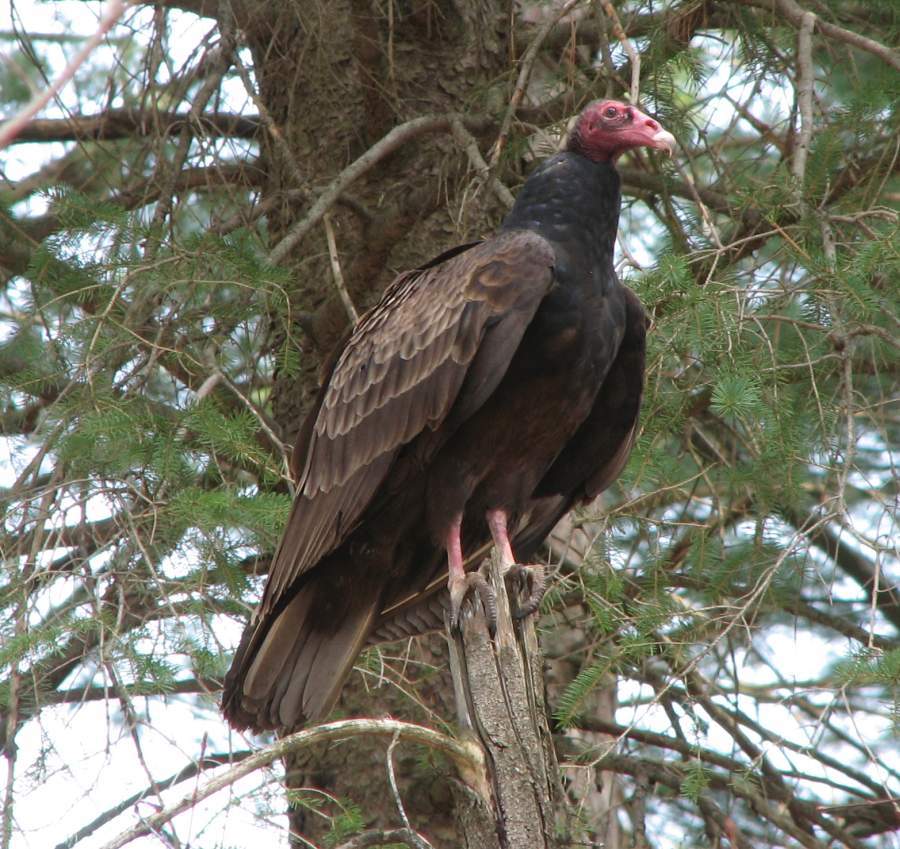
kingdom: Animalia
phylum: Chordata
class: Aves
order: Accipitriformes
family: Cathartidae
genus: Cathartes
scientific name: Cathartes aura
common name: Turkey vulture
